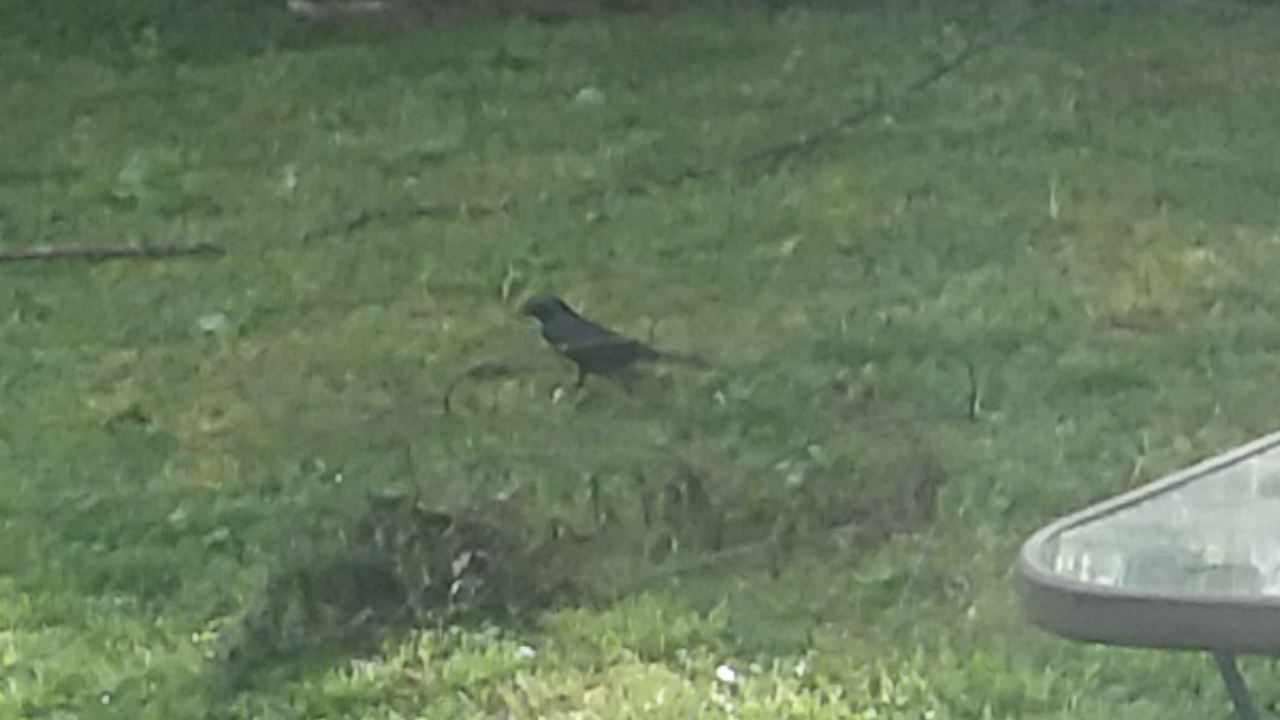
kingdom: Animalia
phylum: Chordata
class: Aves
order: Passeriformes
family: Icteridae
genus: Quiscalus
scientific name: Quiscalus quiscula
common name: Common grackle
